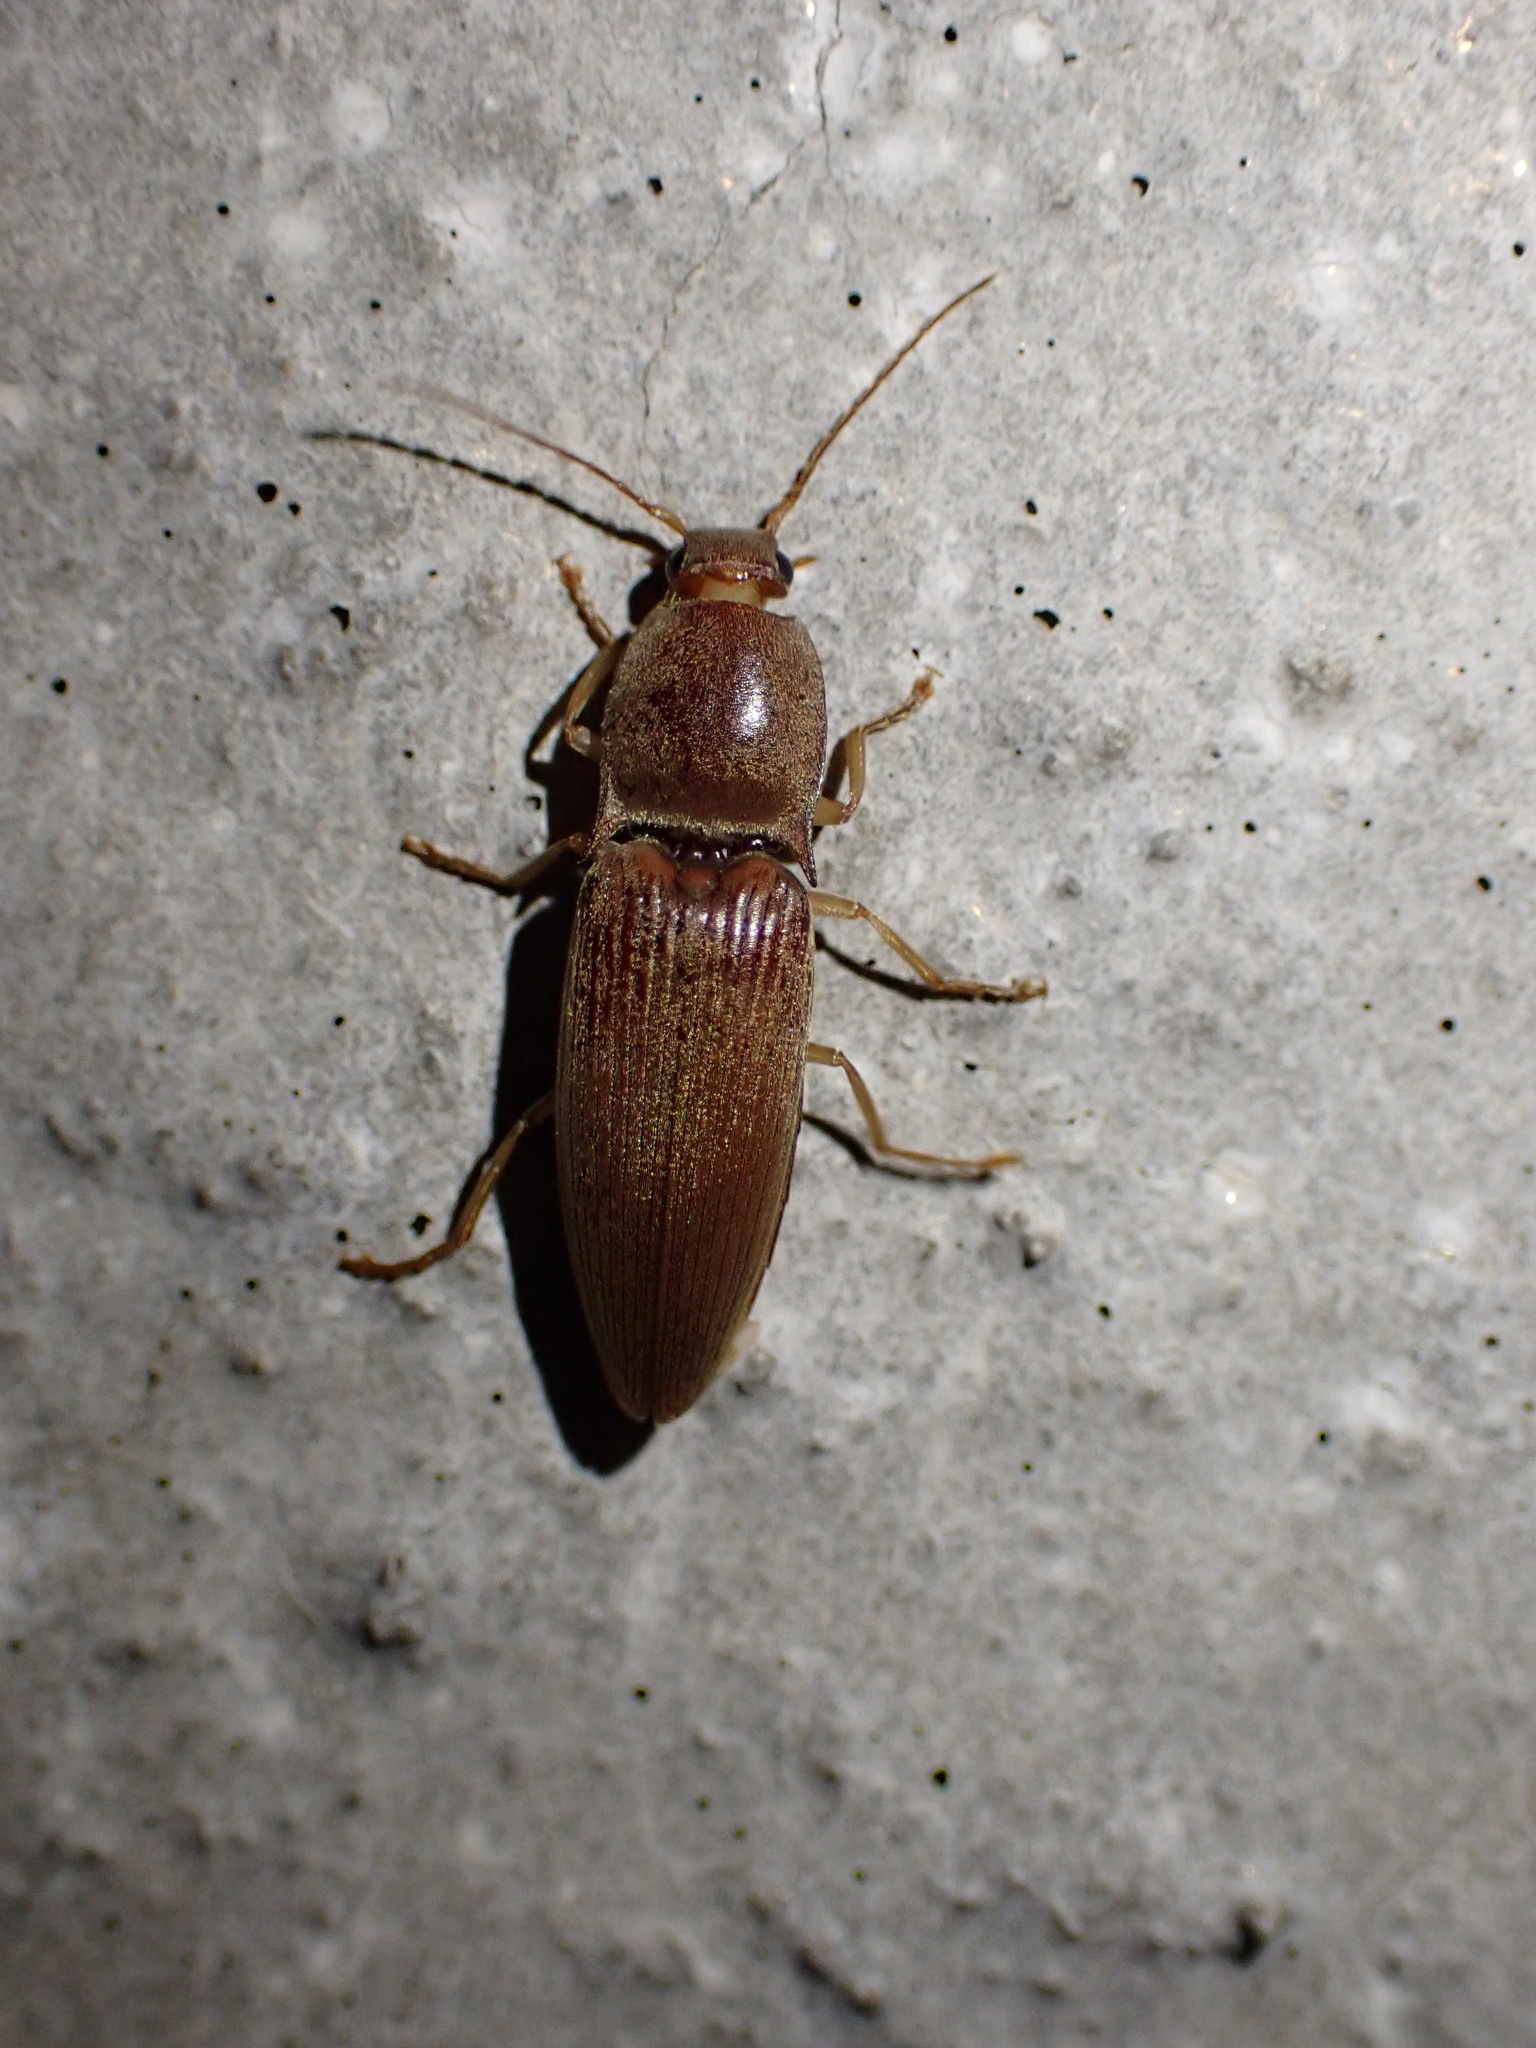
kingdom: Animalia
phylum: Arthropoda
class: Insecta
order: Coleoptera
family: Elateridae
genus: Monocrepidius
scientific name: Monocrepidius lividus
